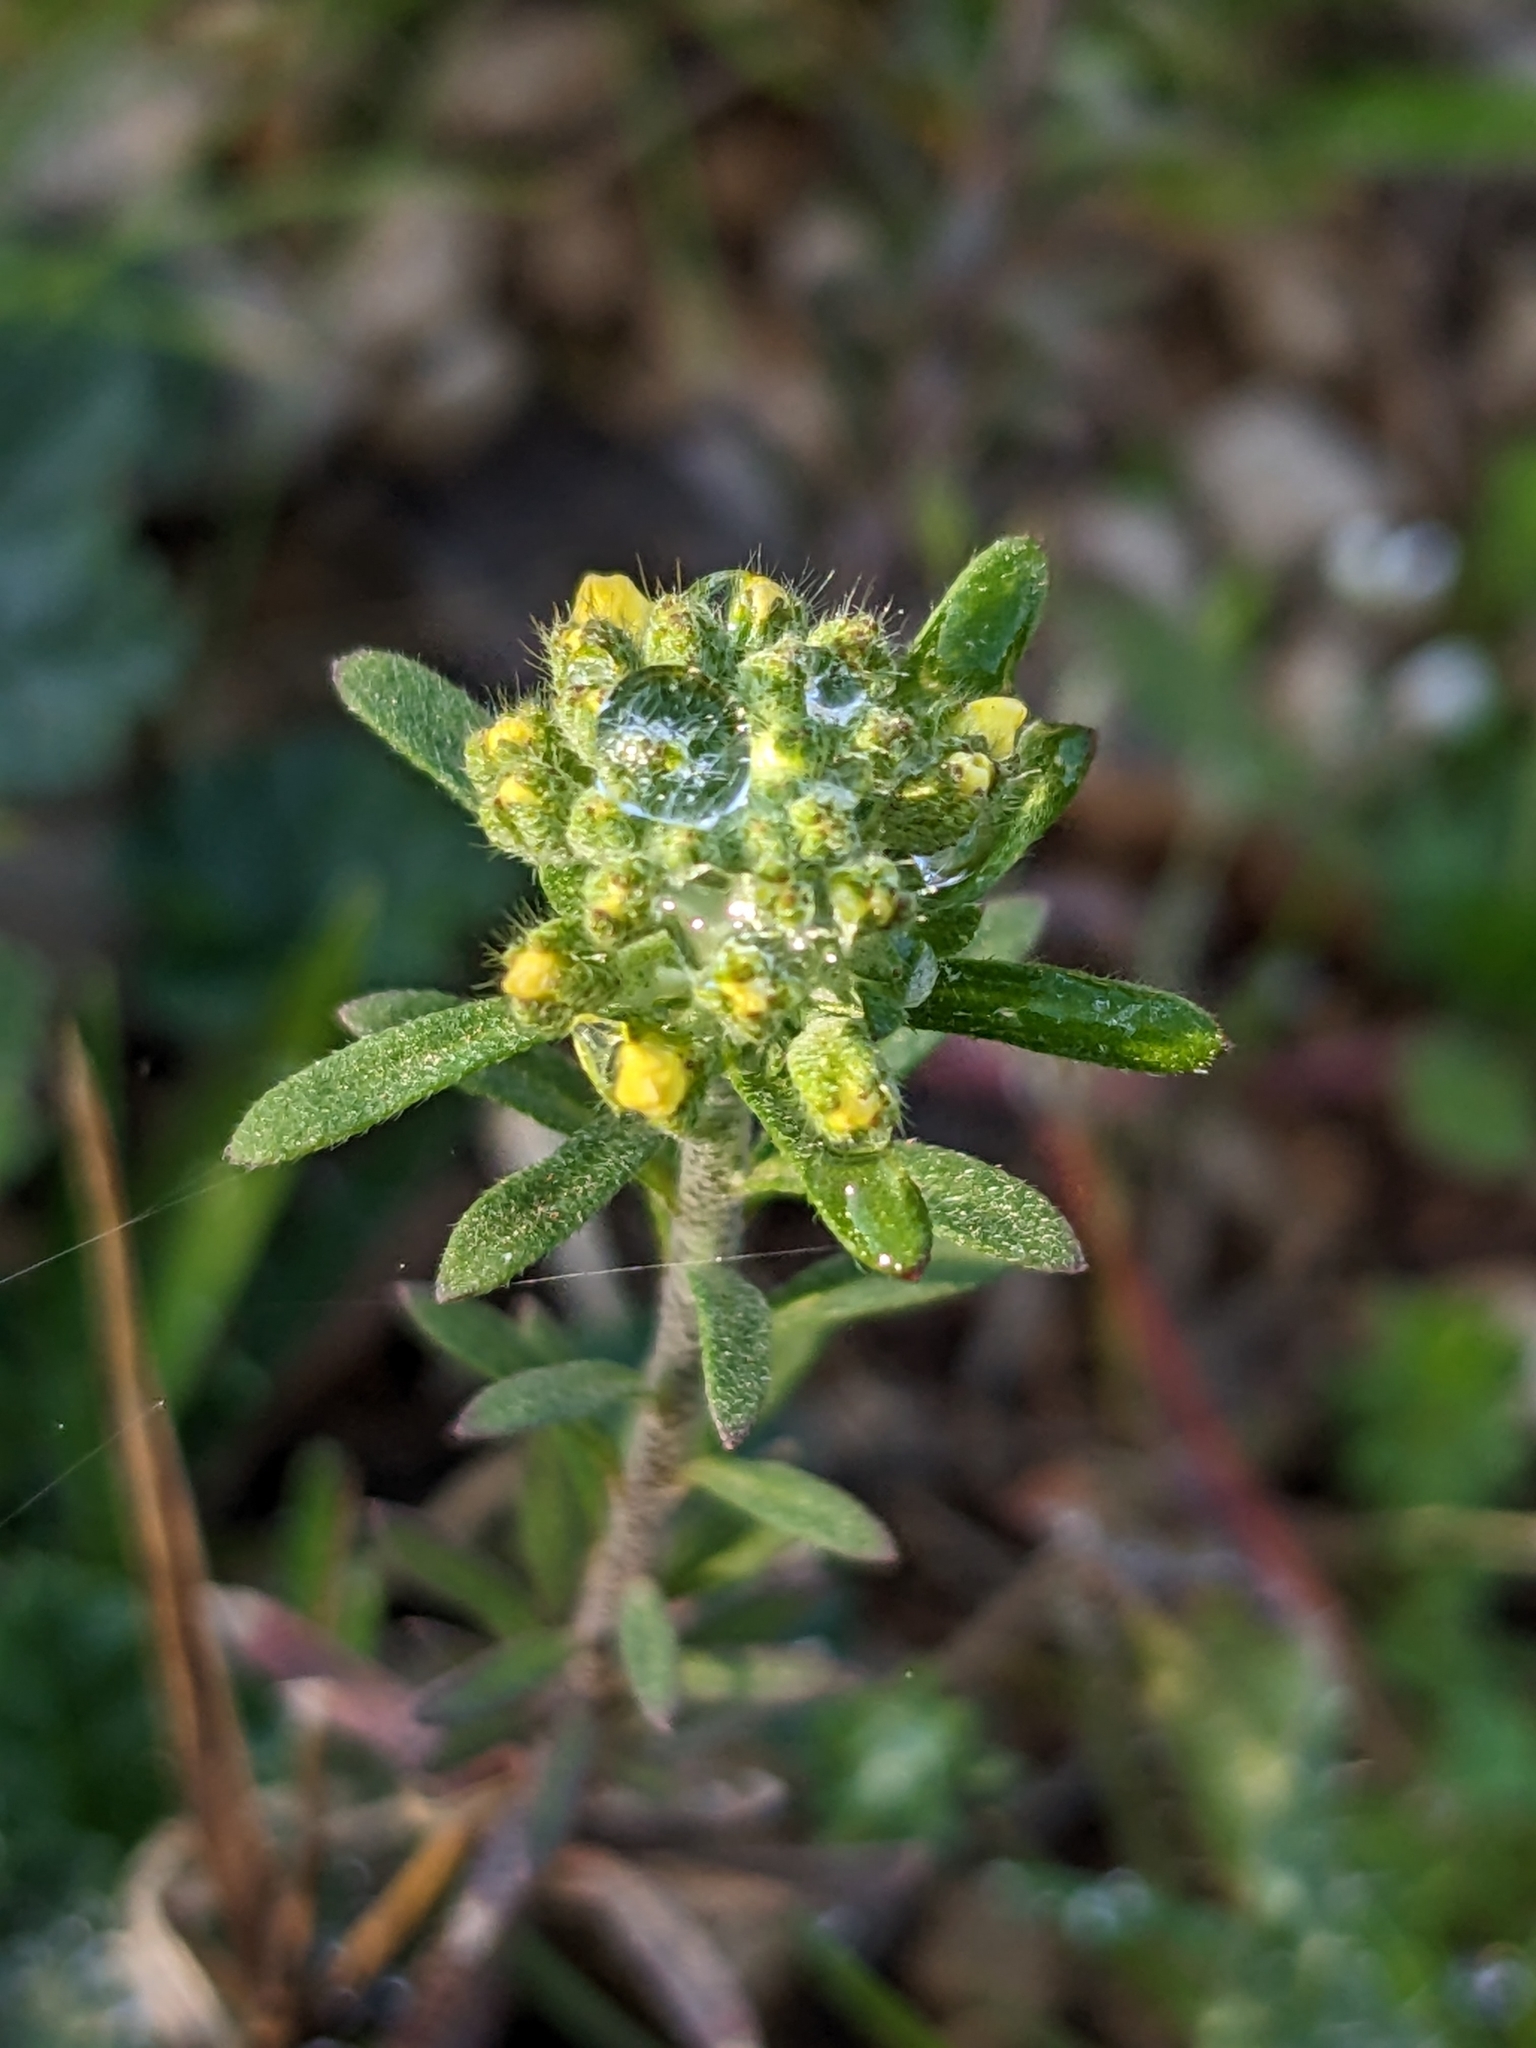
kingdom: Plantae
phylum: Tracheophyta
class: Magnoliopsida
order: Brassicales
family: Brassicaceae
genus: Alyssum
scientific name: Alyssum alyssoides
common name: Small alison
